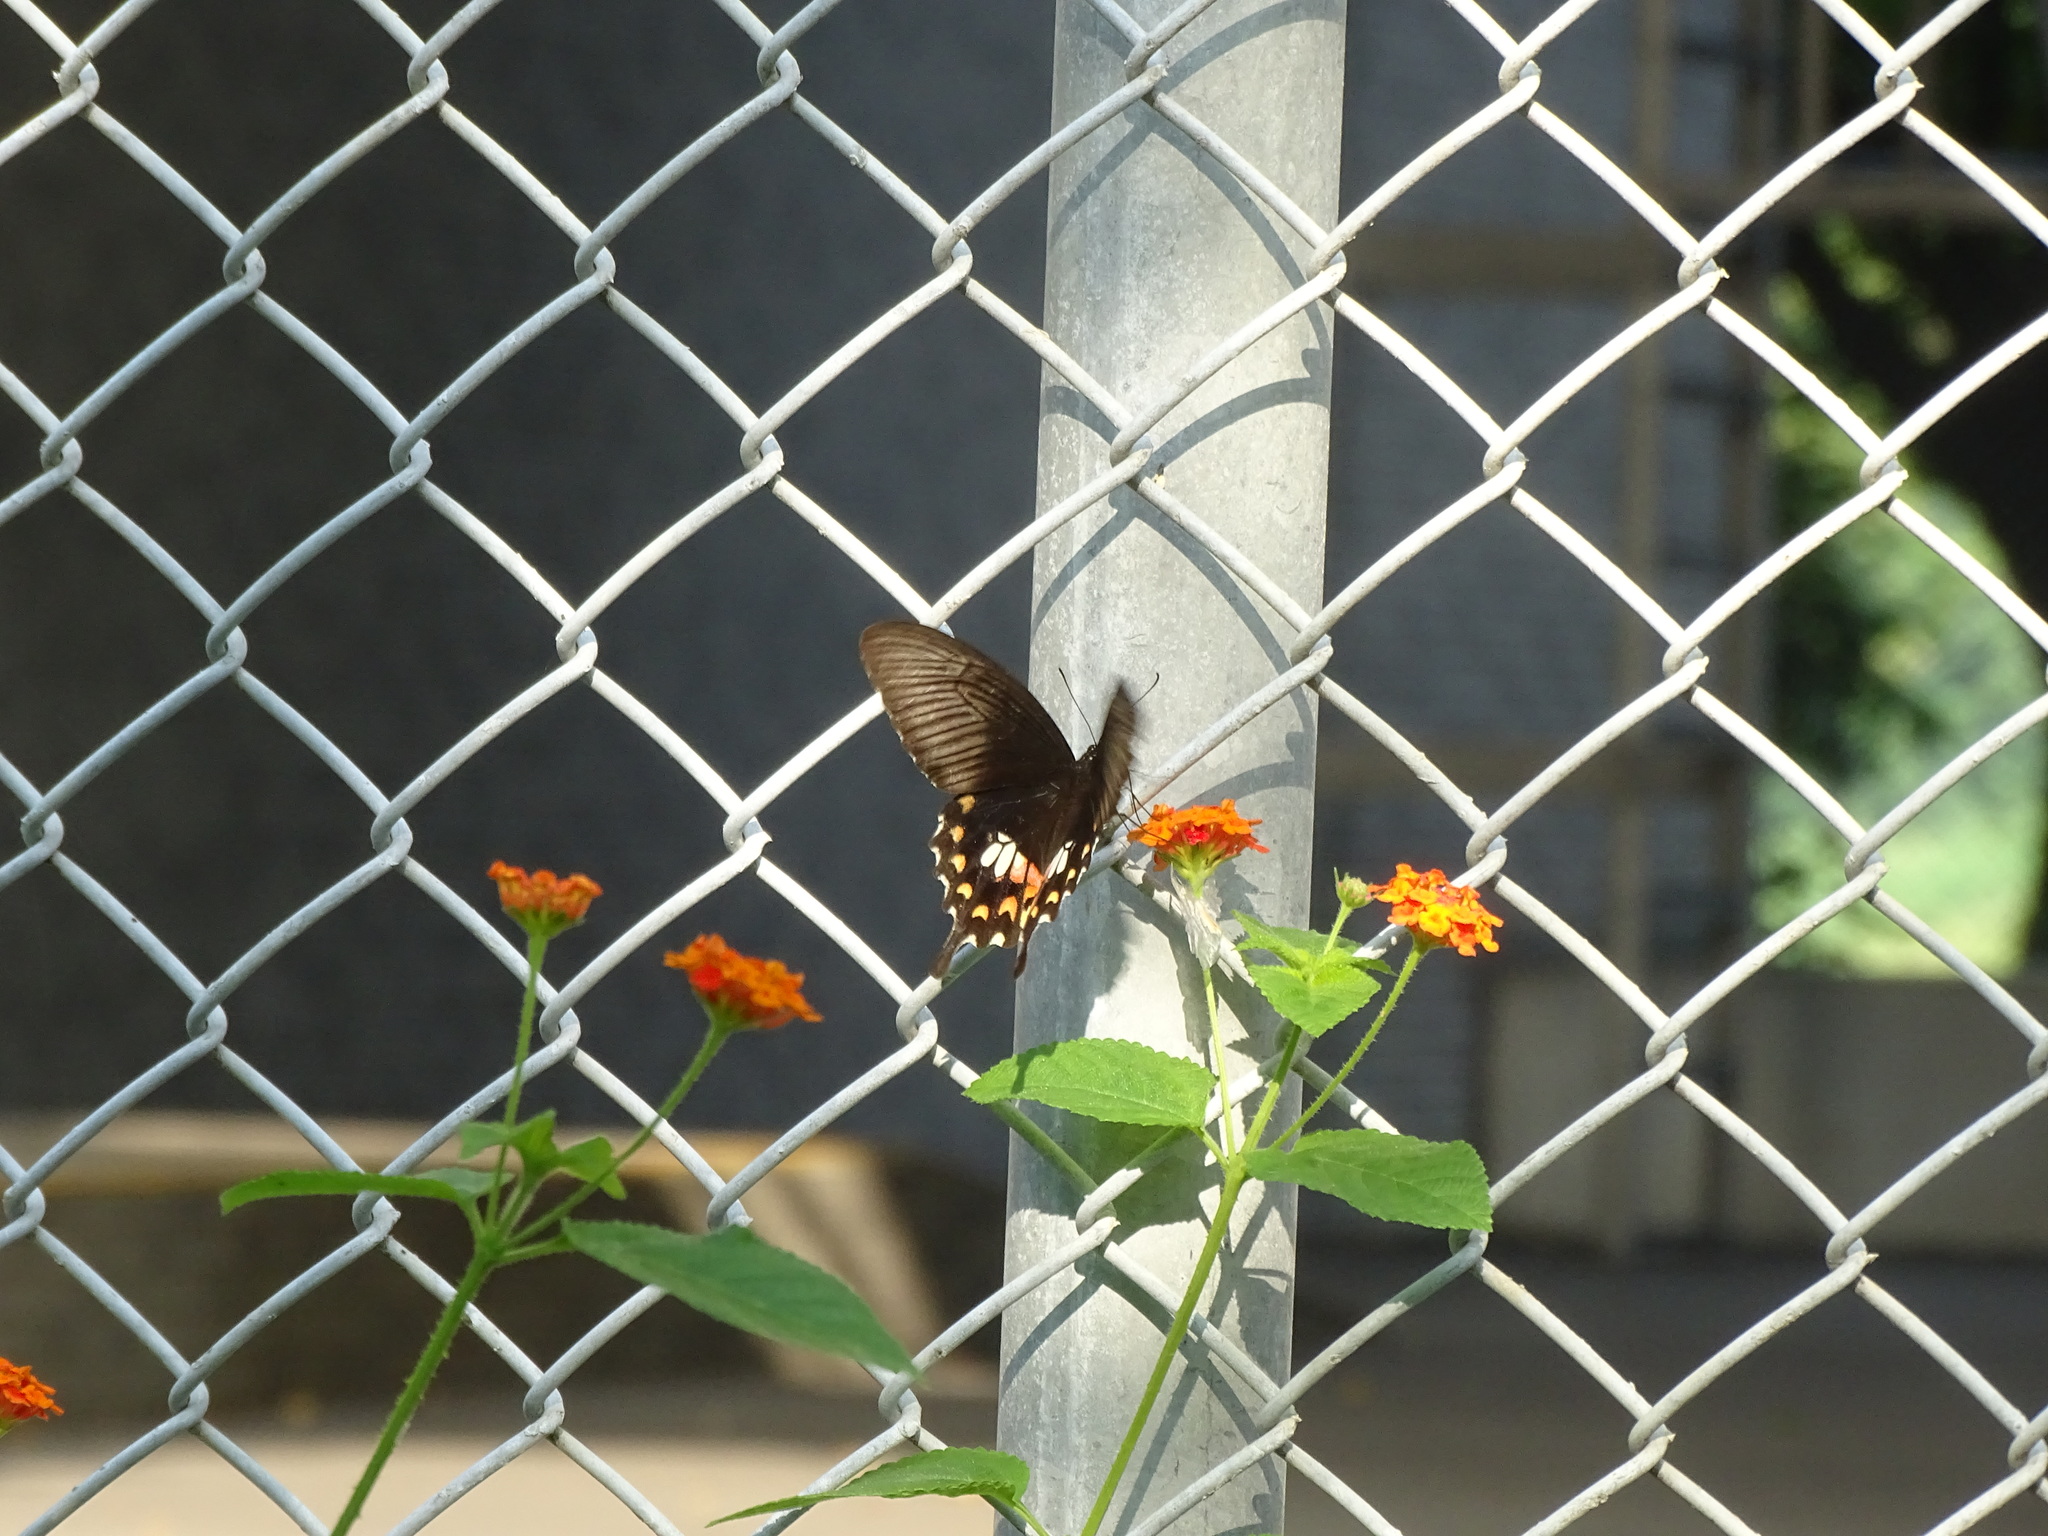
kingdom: Animalia
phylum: Arthropoda
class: Insecta
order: Lepidoptera
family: Papilionidae
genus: Papilio
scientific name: Papilio polytes
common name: Common mormon
